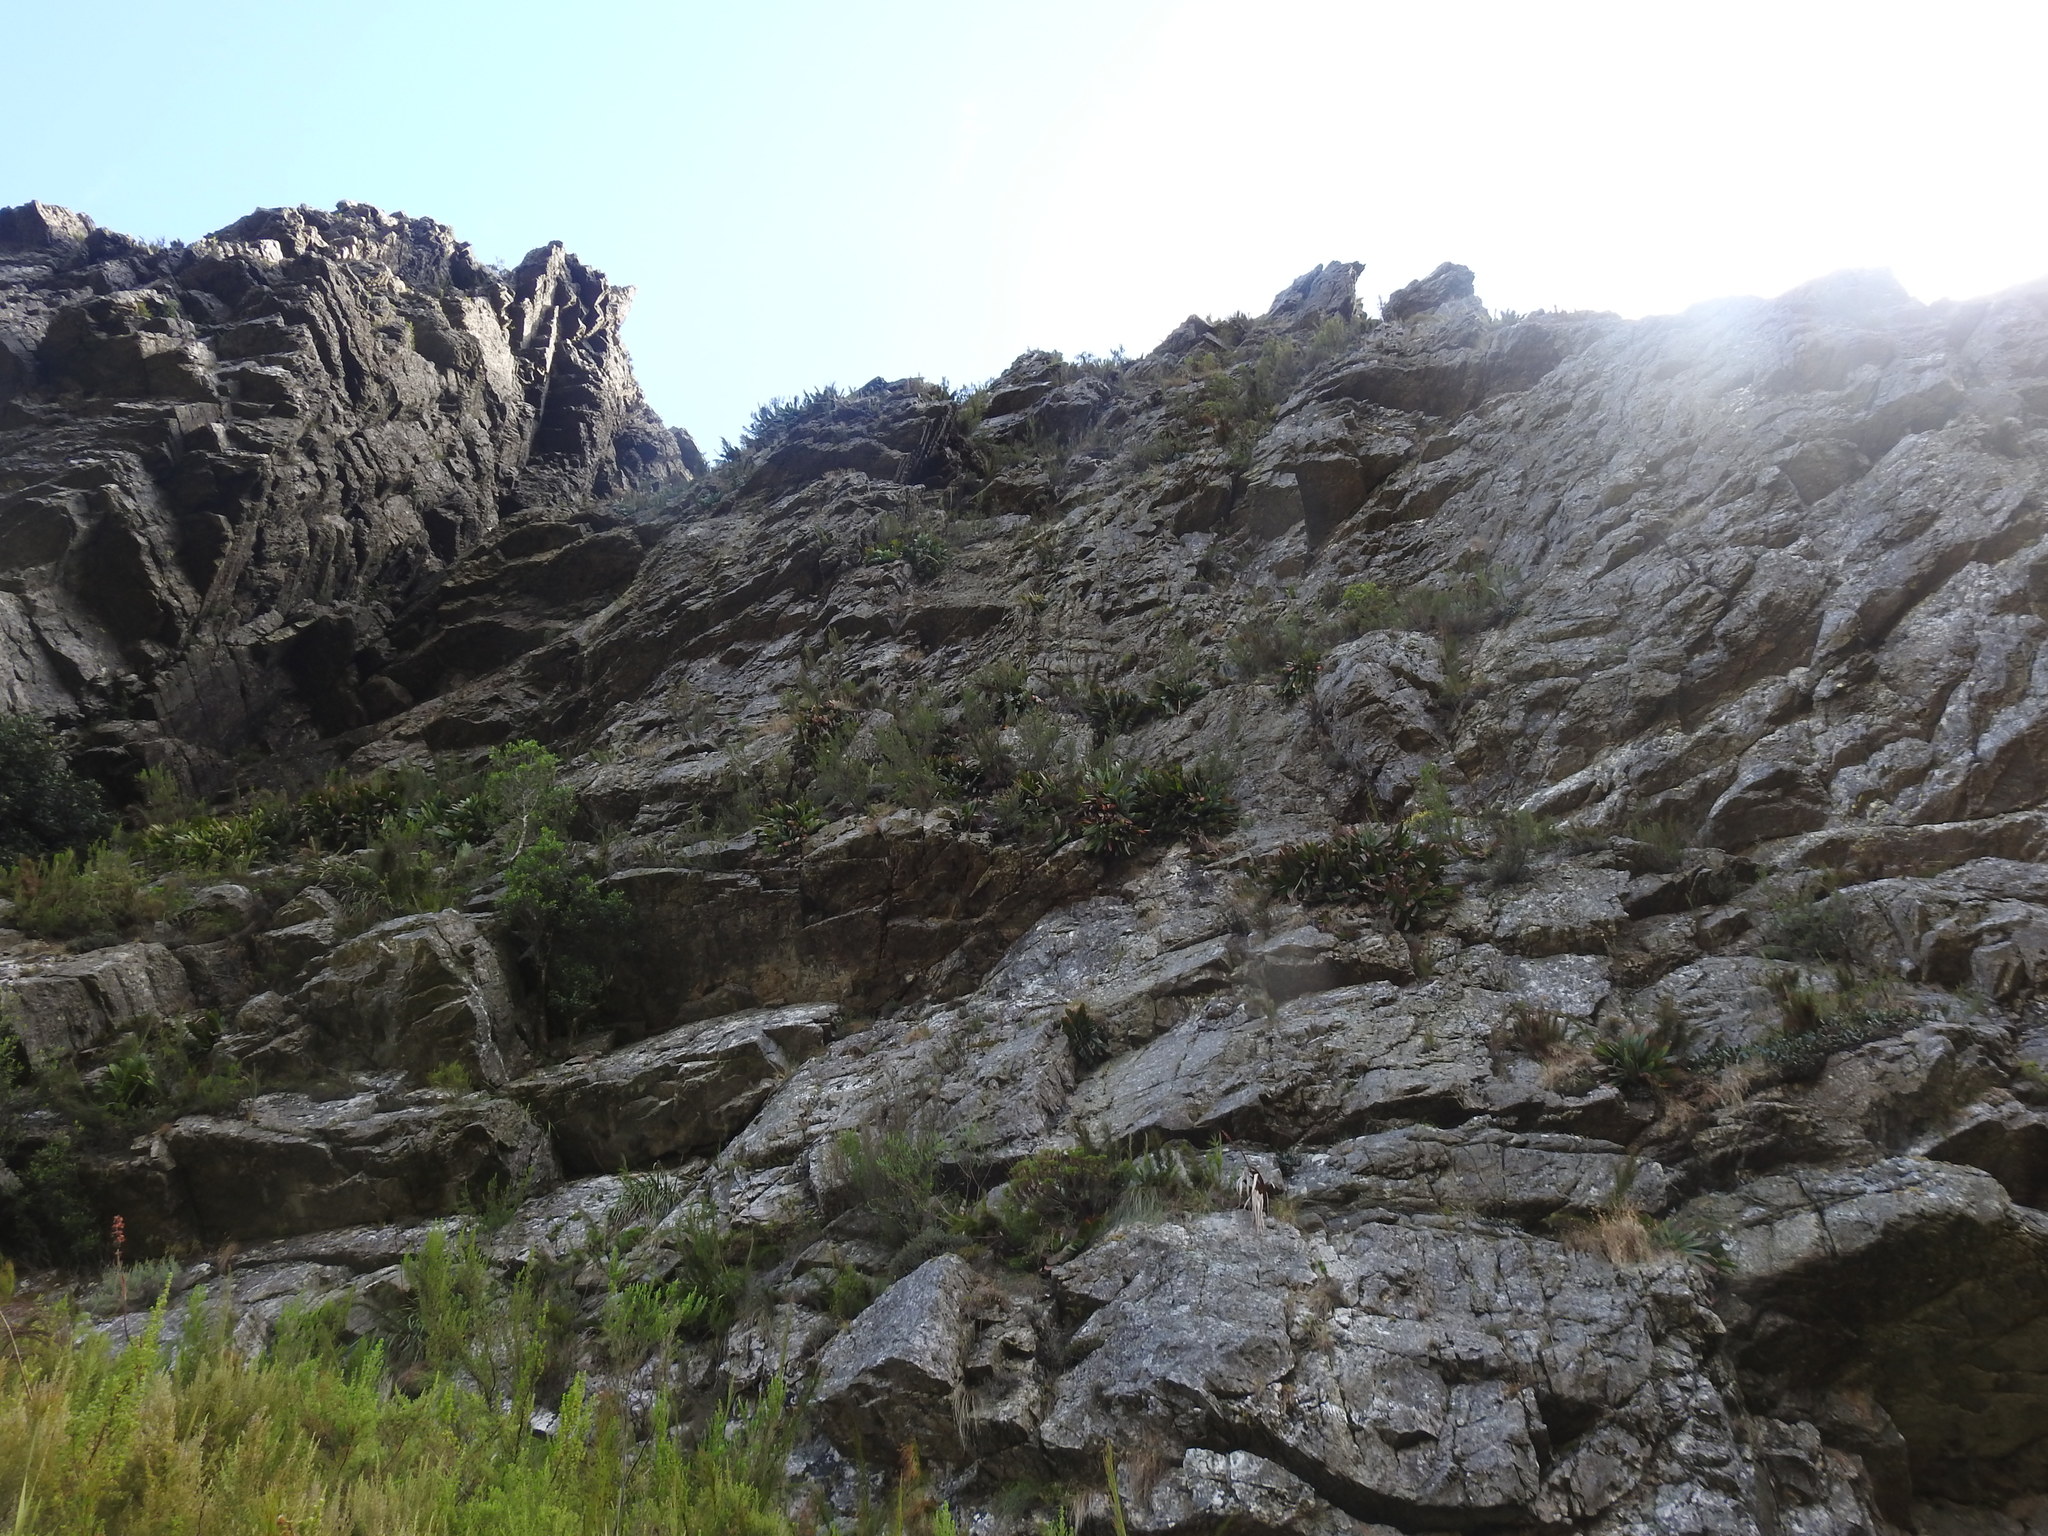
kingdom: Plantae
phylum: Tracheophyta
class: Liliopsida
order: Asparagales
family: Asphodelaceae
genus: Kumara
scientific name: Kumara haemanthifolia
